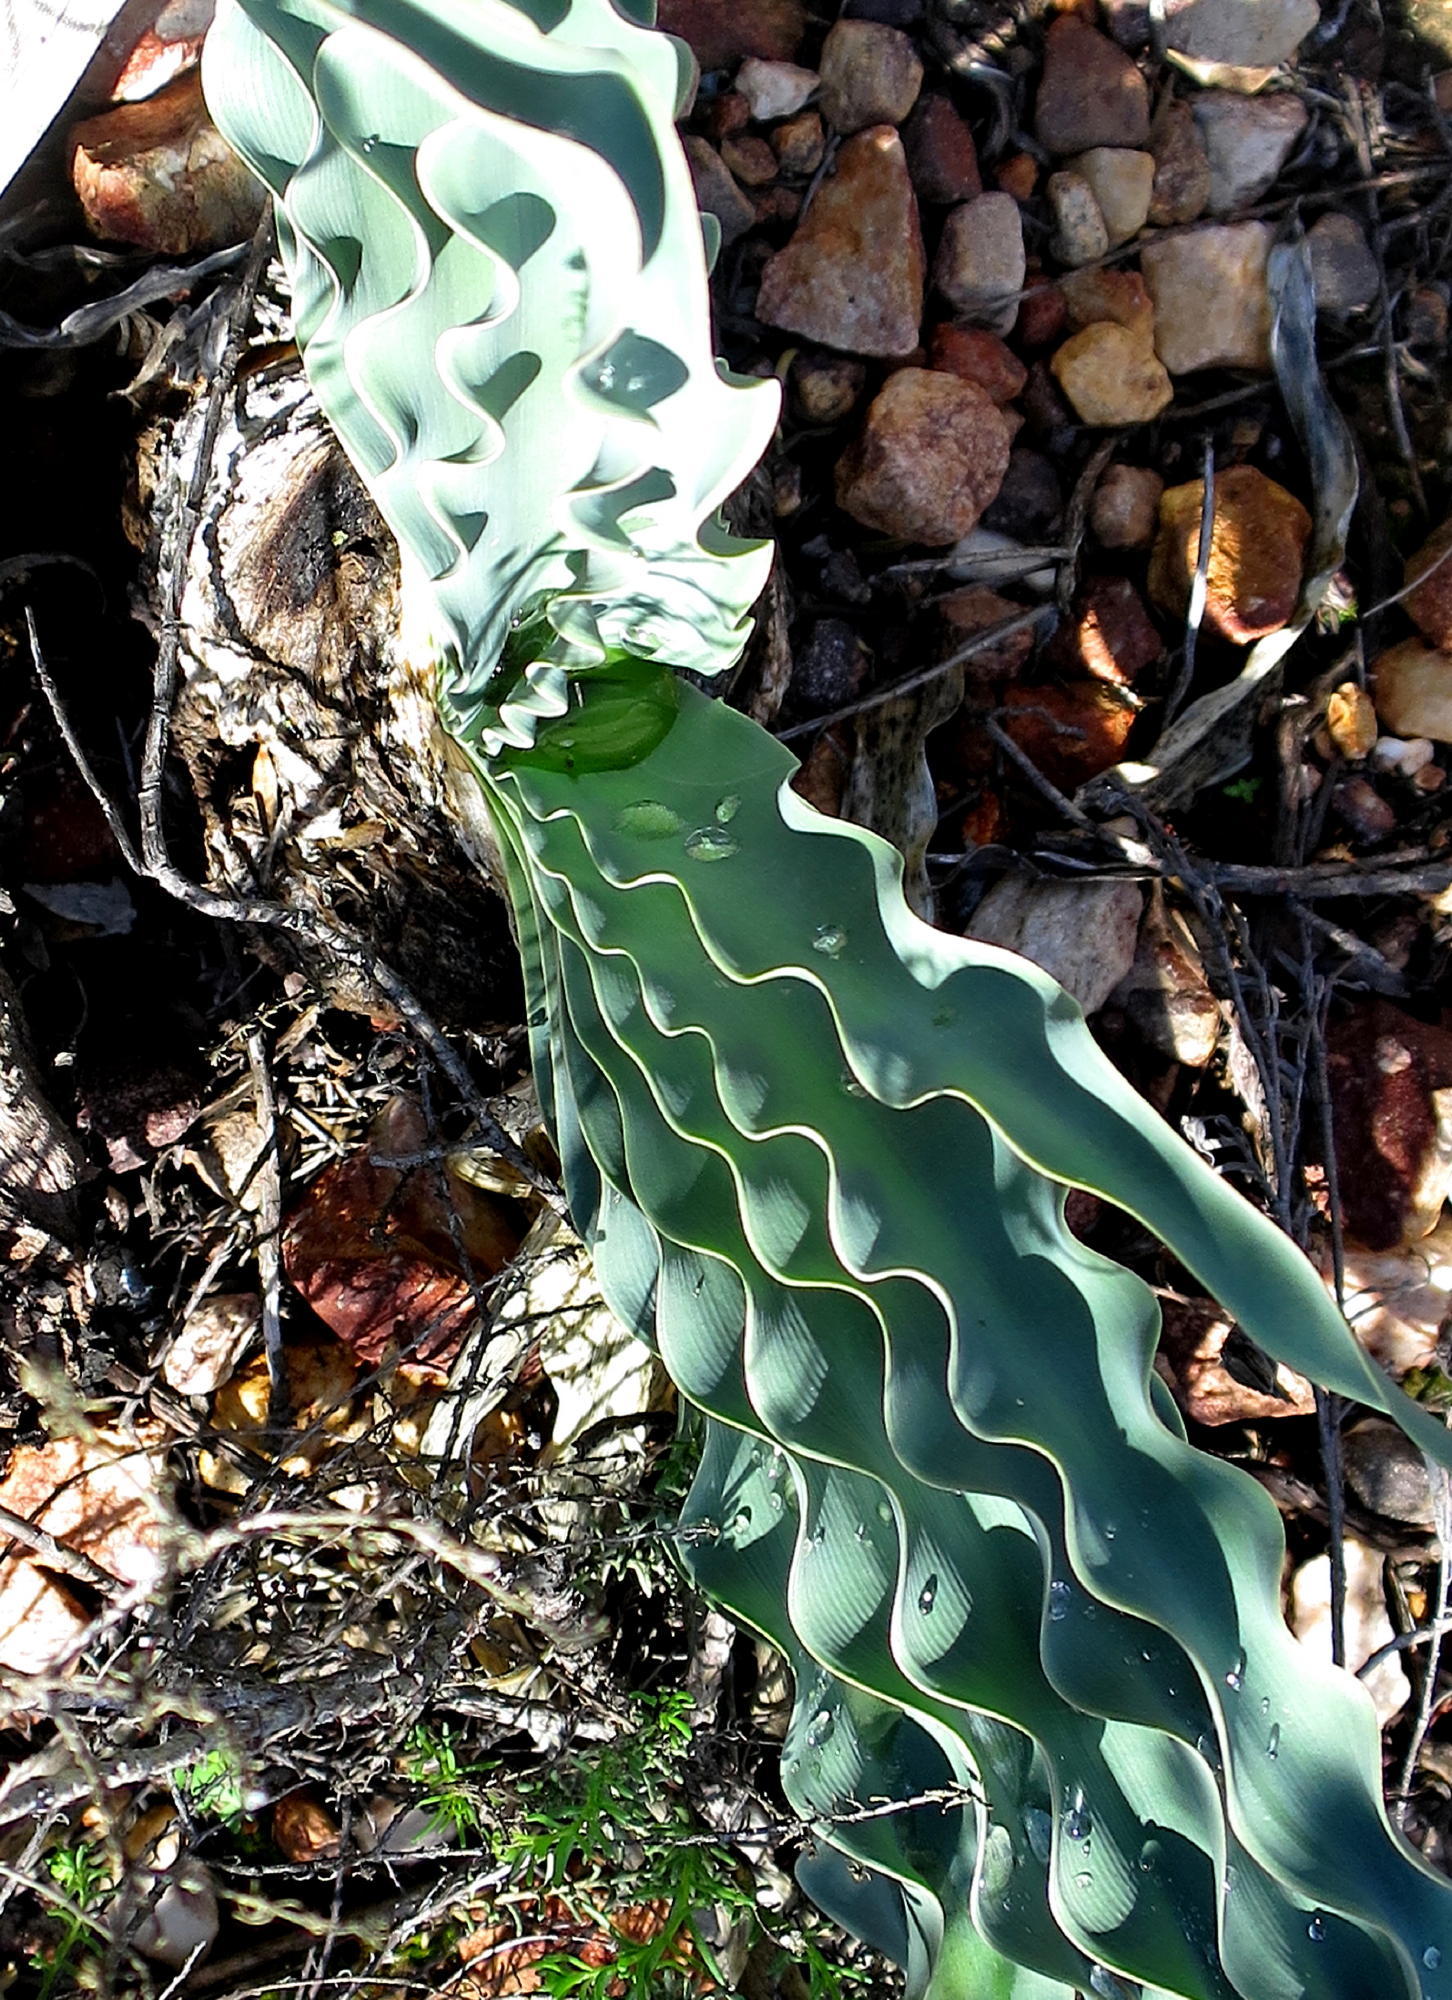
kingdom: Plantae
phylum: Tracheophyta
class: Liliopsida
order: Asparagales
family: Amaryllidaceae
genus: Boophone
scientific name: Boophone disticha
